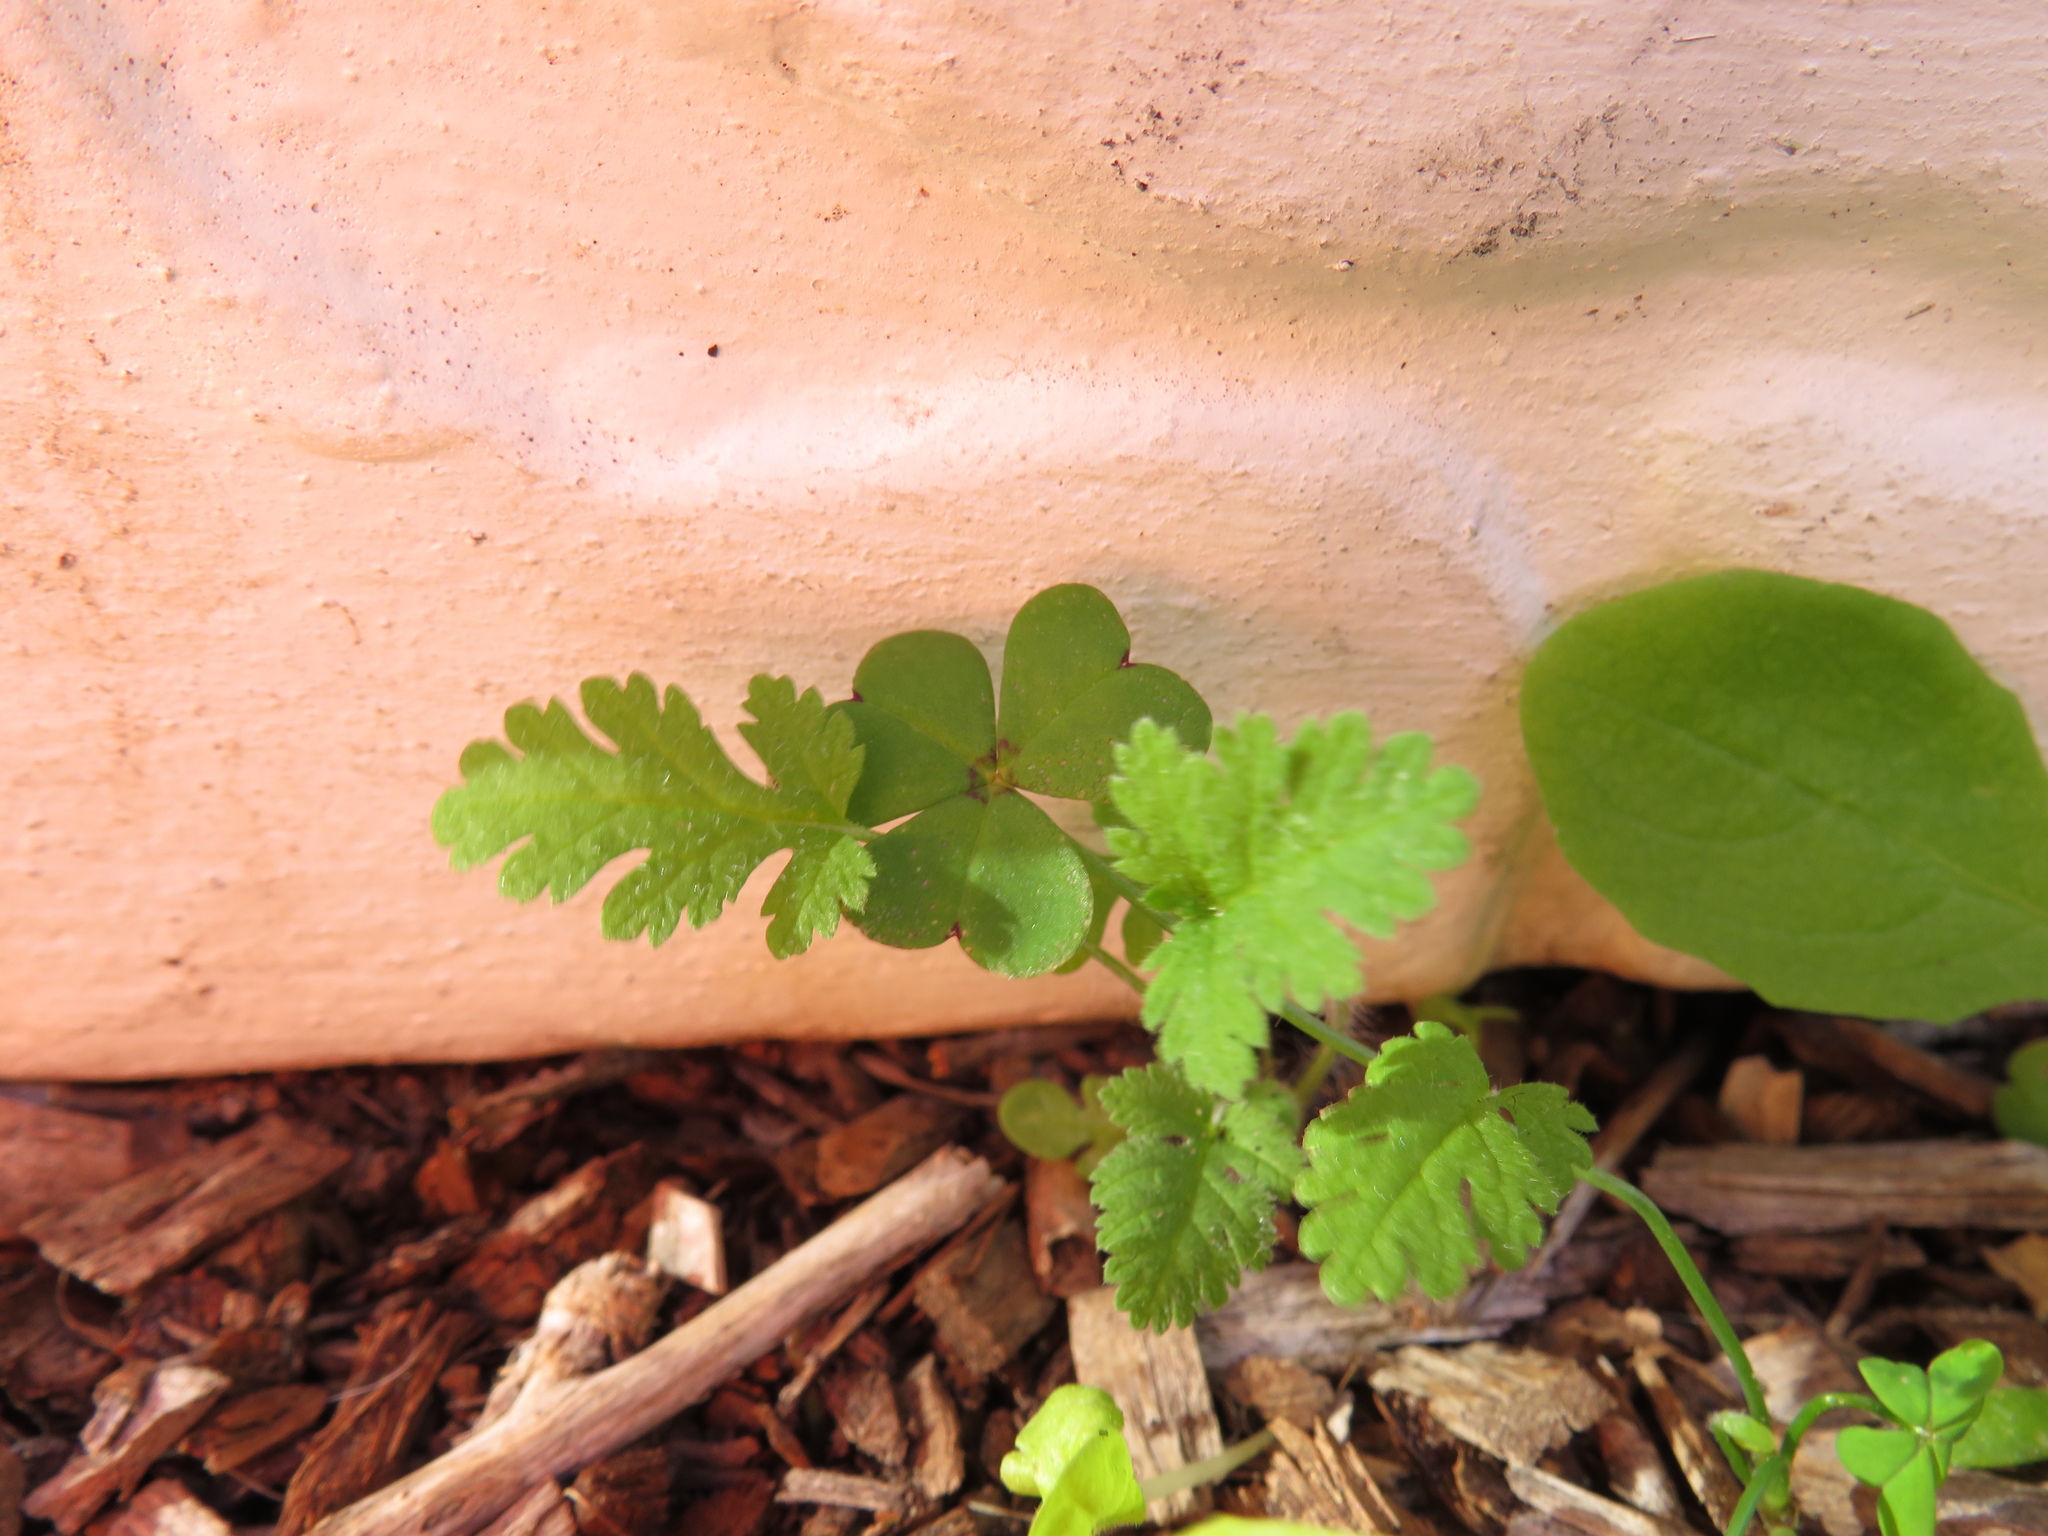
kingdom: Plantae
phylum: Tracheophyta
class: Magnoliopsida
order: Geraniales
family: Geraniaceae
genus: Erodium
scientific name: Erodium moschatum
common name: Musk stork's-bill
